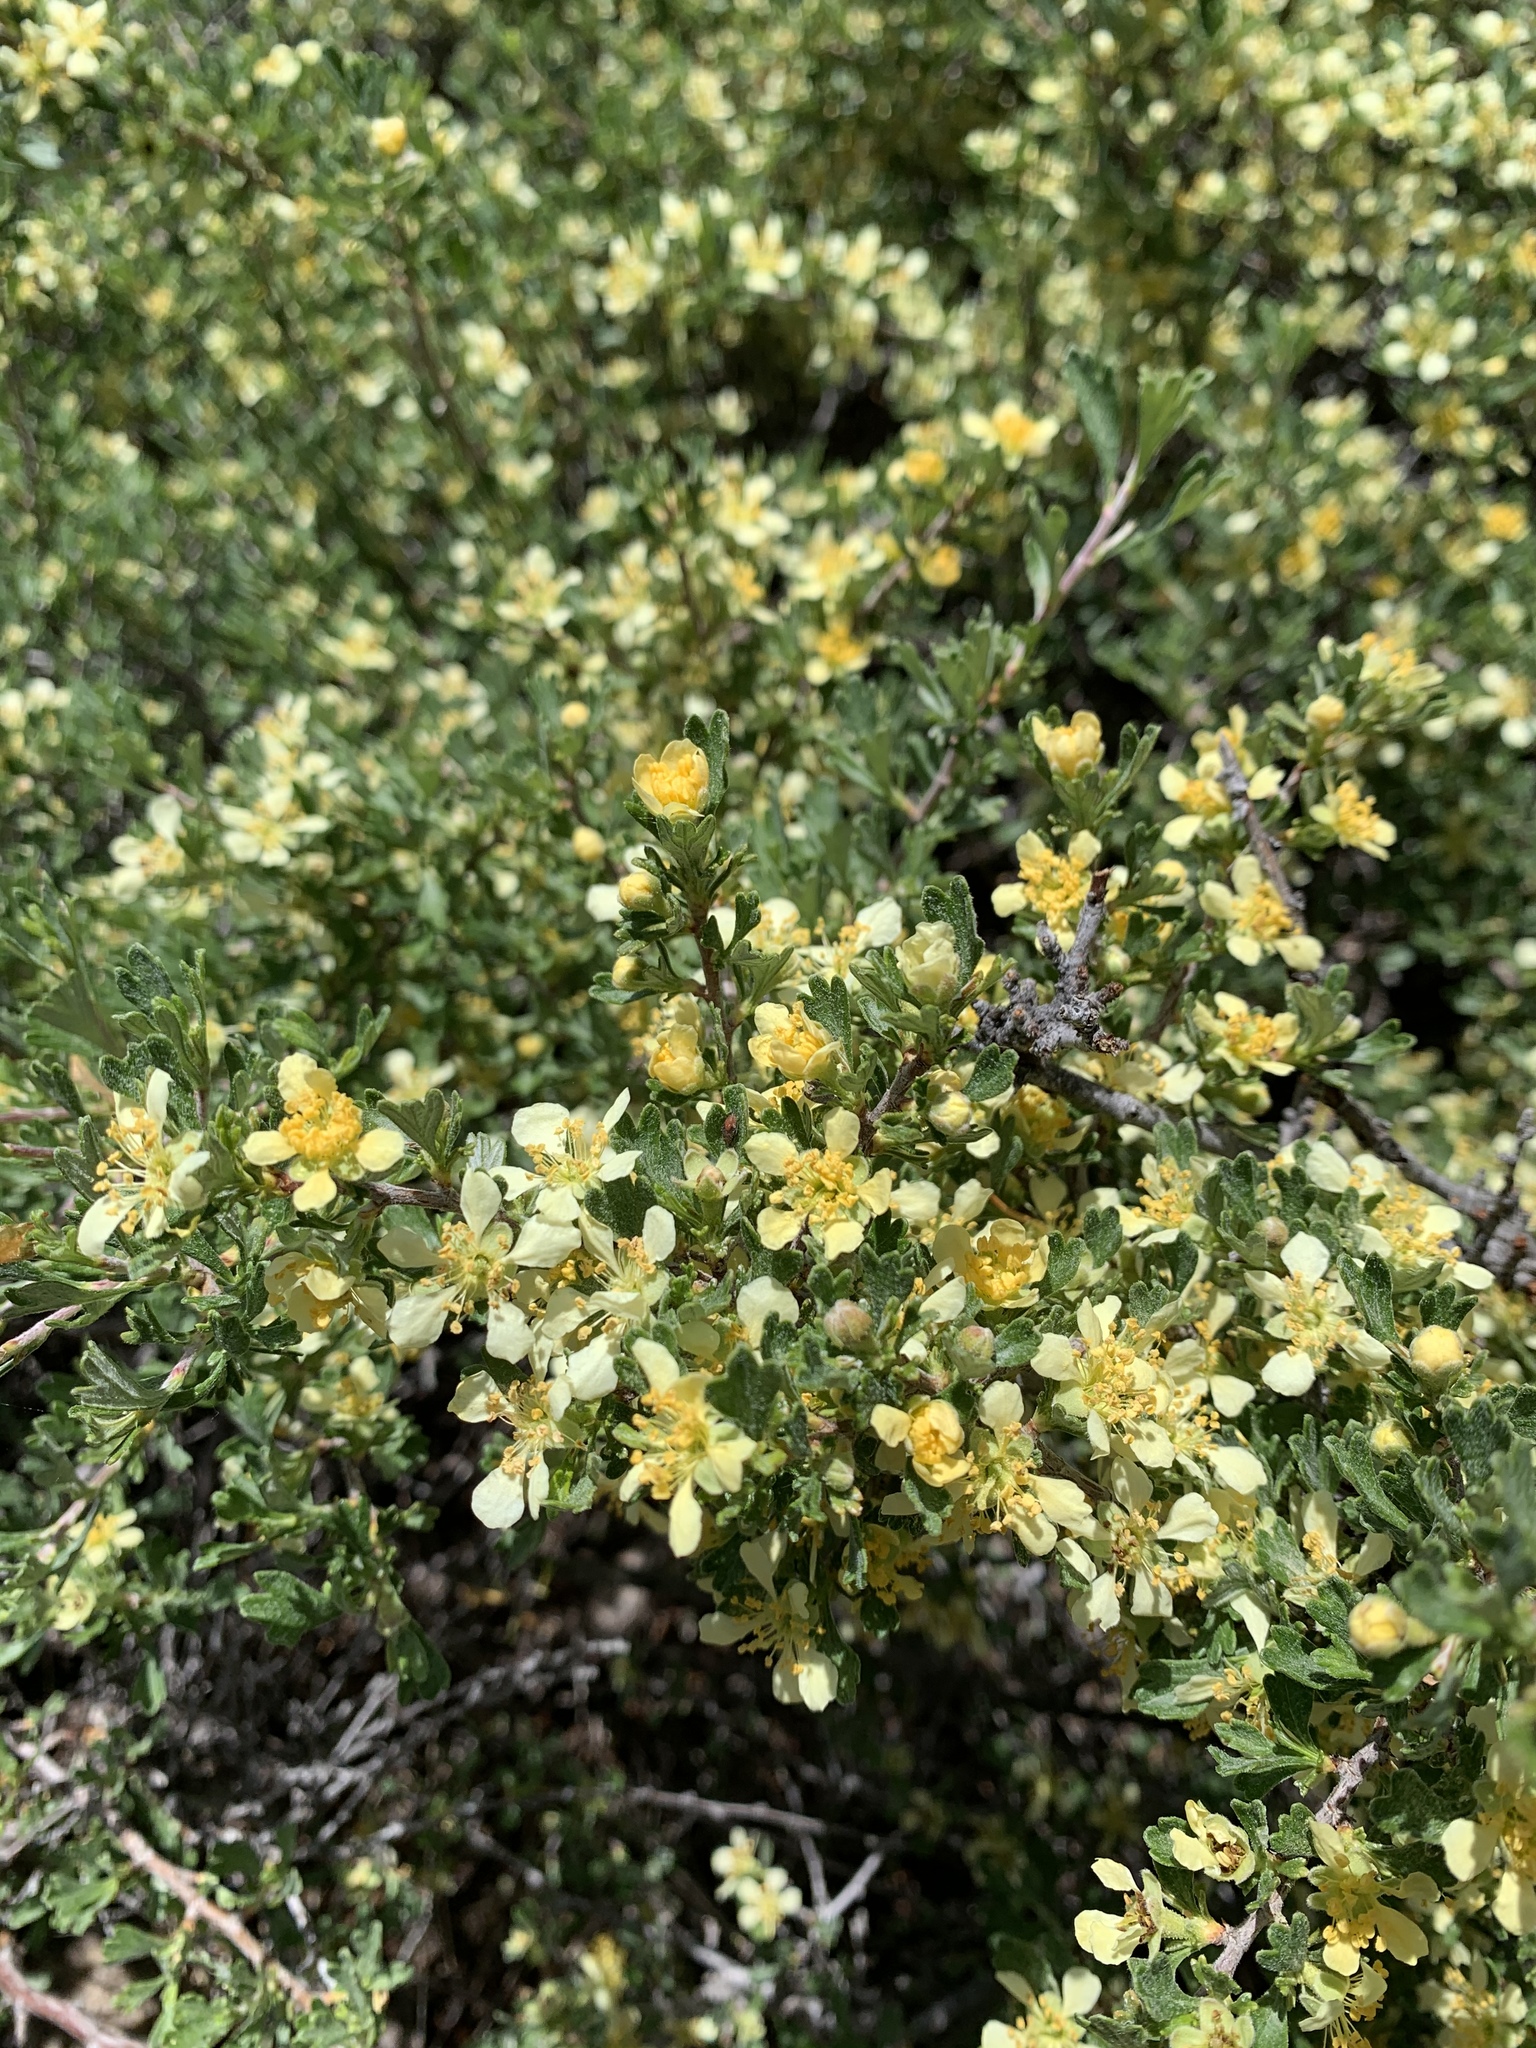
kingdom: Plantae
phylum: Tracheophyta
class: Magnoliopsida
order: Rosales
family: Rosaceae
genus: Purshia
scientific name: Purshia tridentata
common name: Antelope bitterbrush
